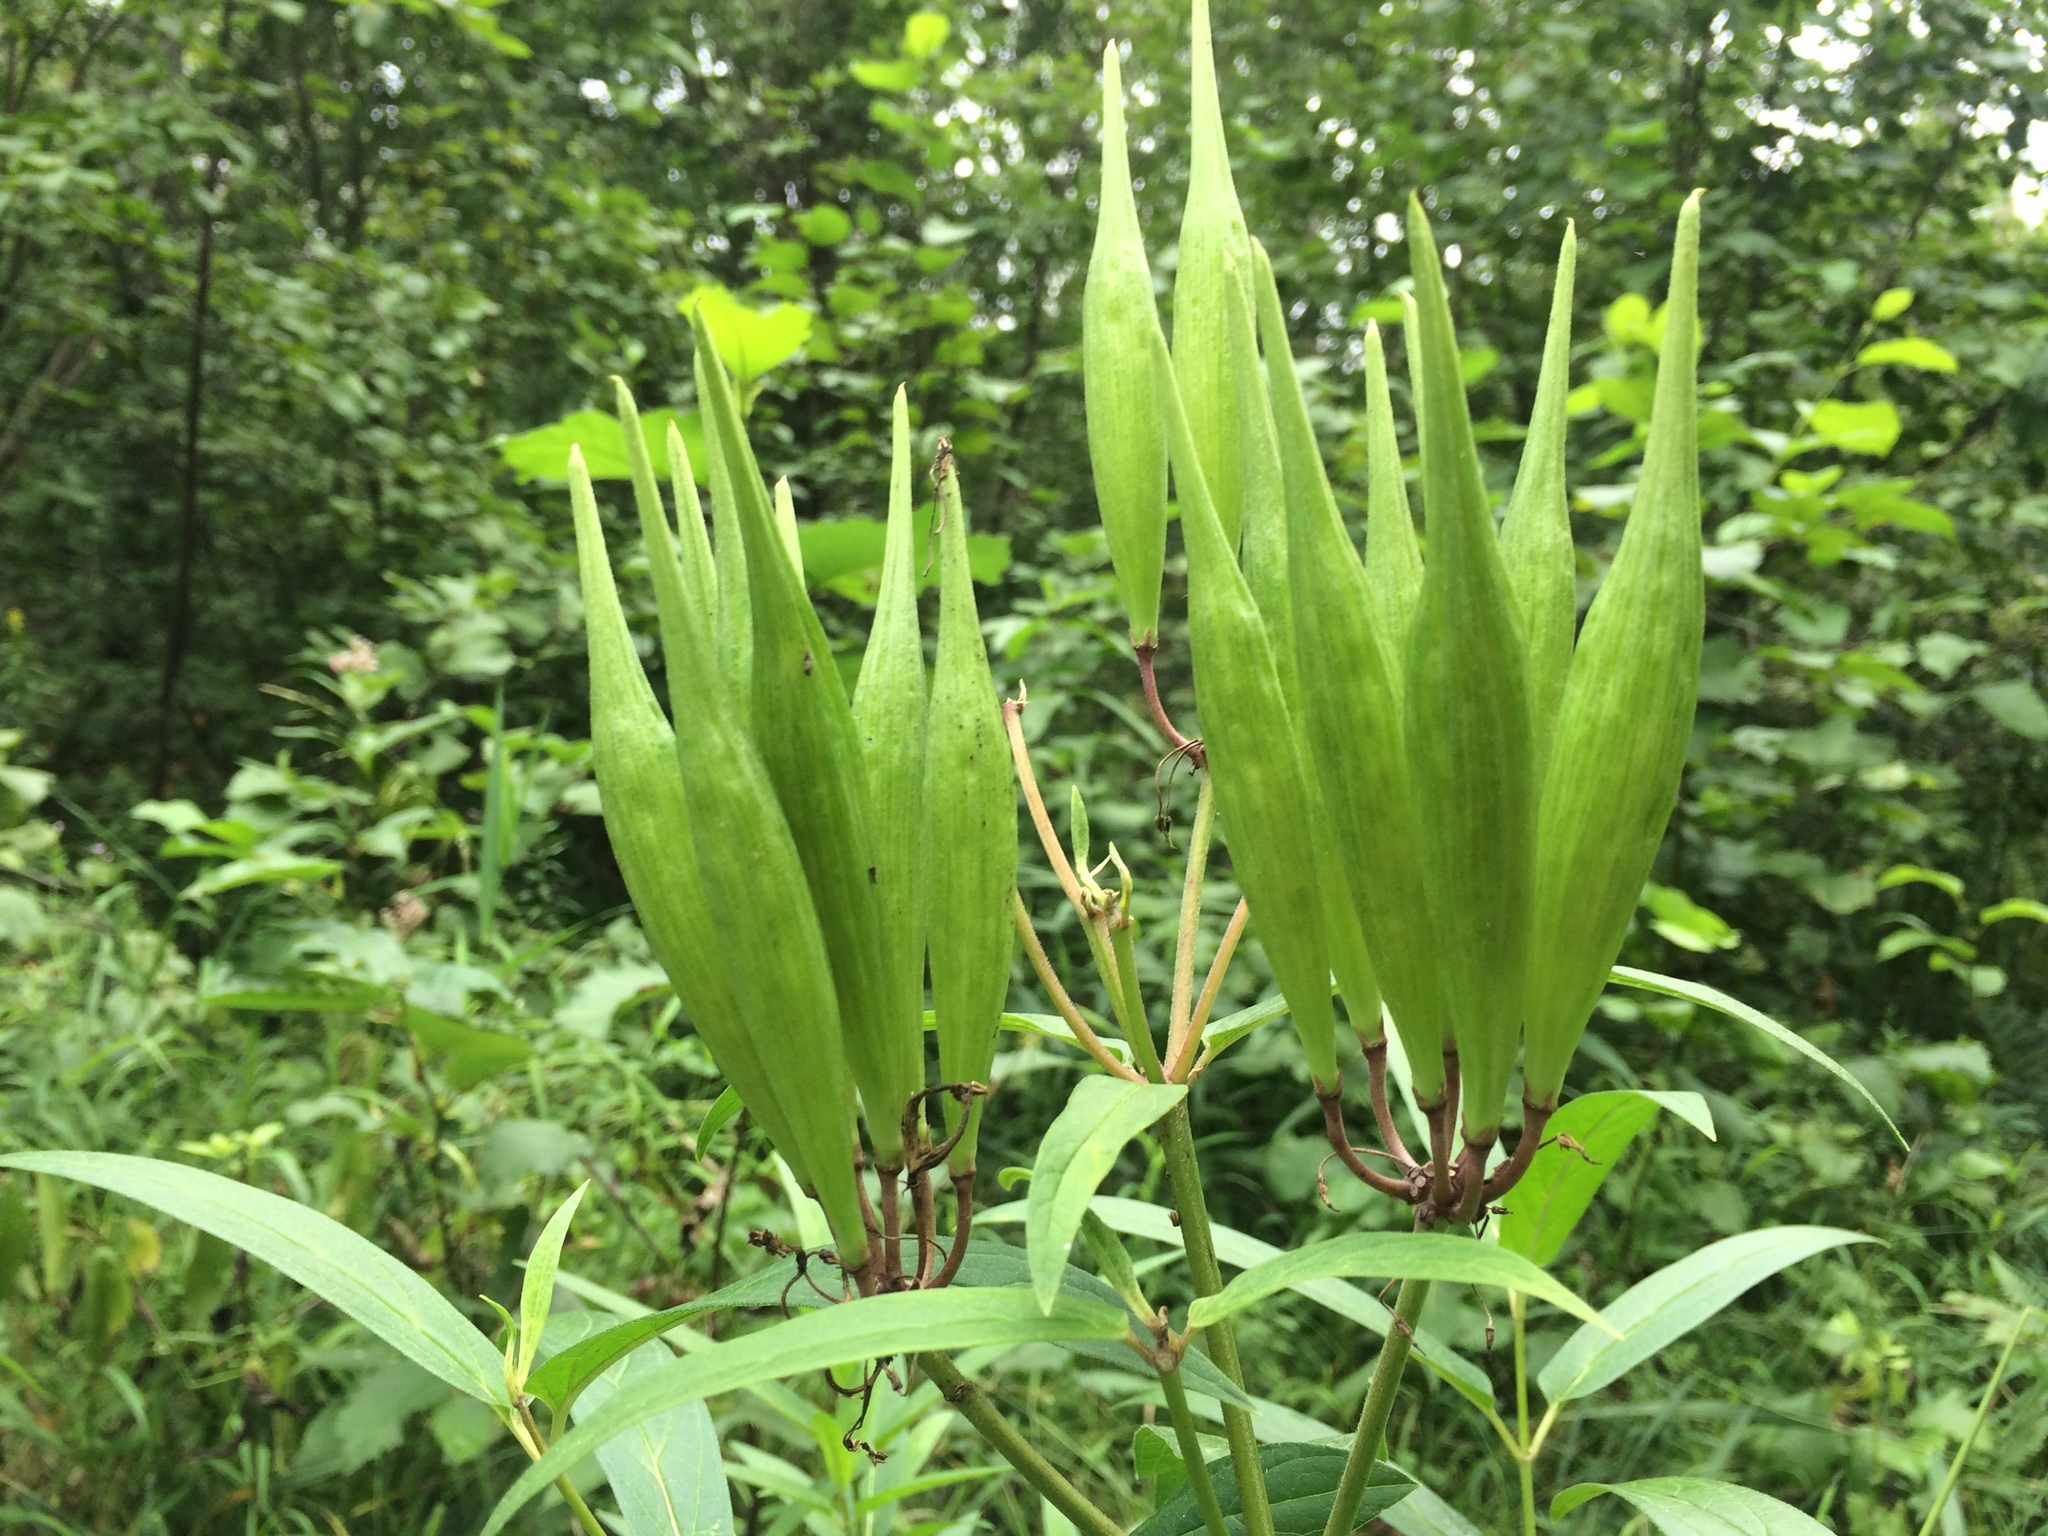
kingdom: Plantae
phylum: Tracheophyta
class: Magnoliopsida
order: Gentianales
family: Apocynaceae
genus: Asclepias
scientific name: Asclepias incarnata
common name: Swamp milkweed
